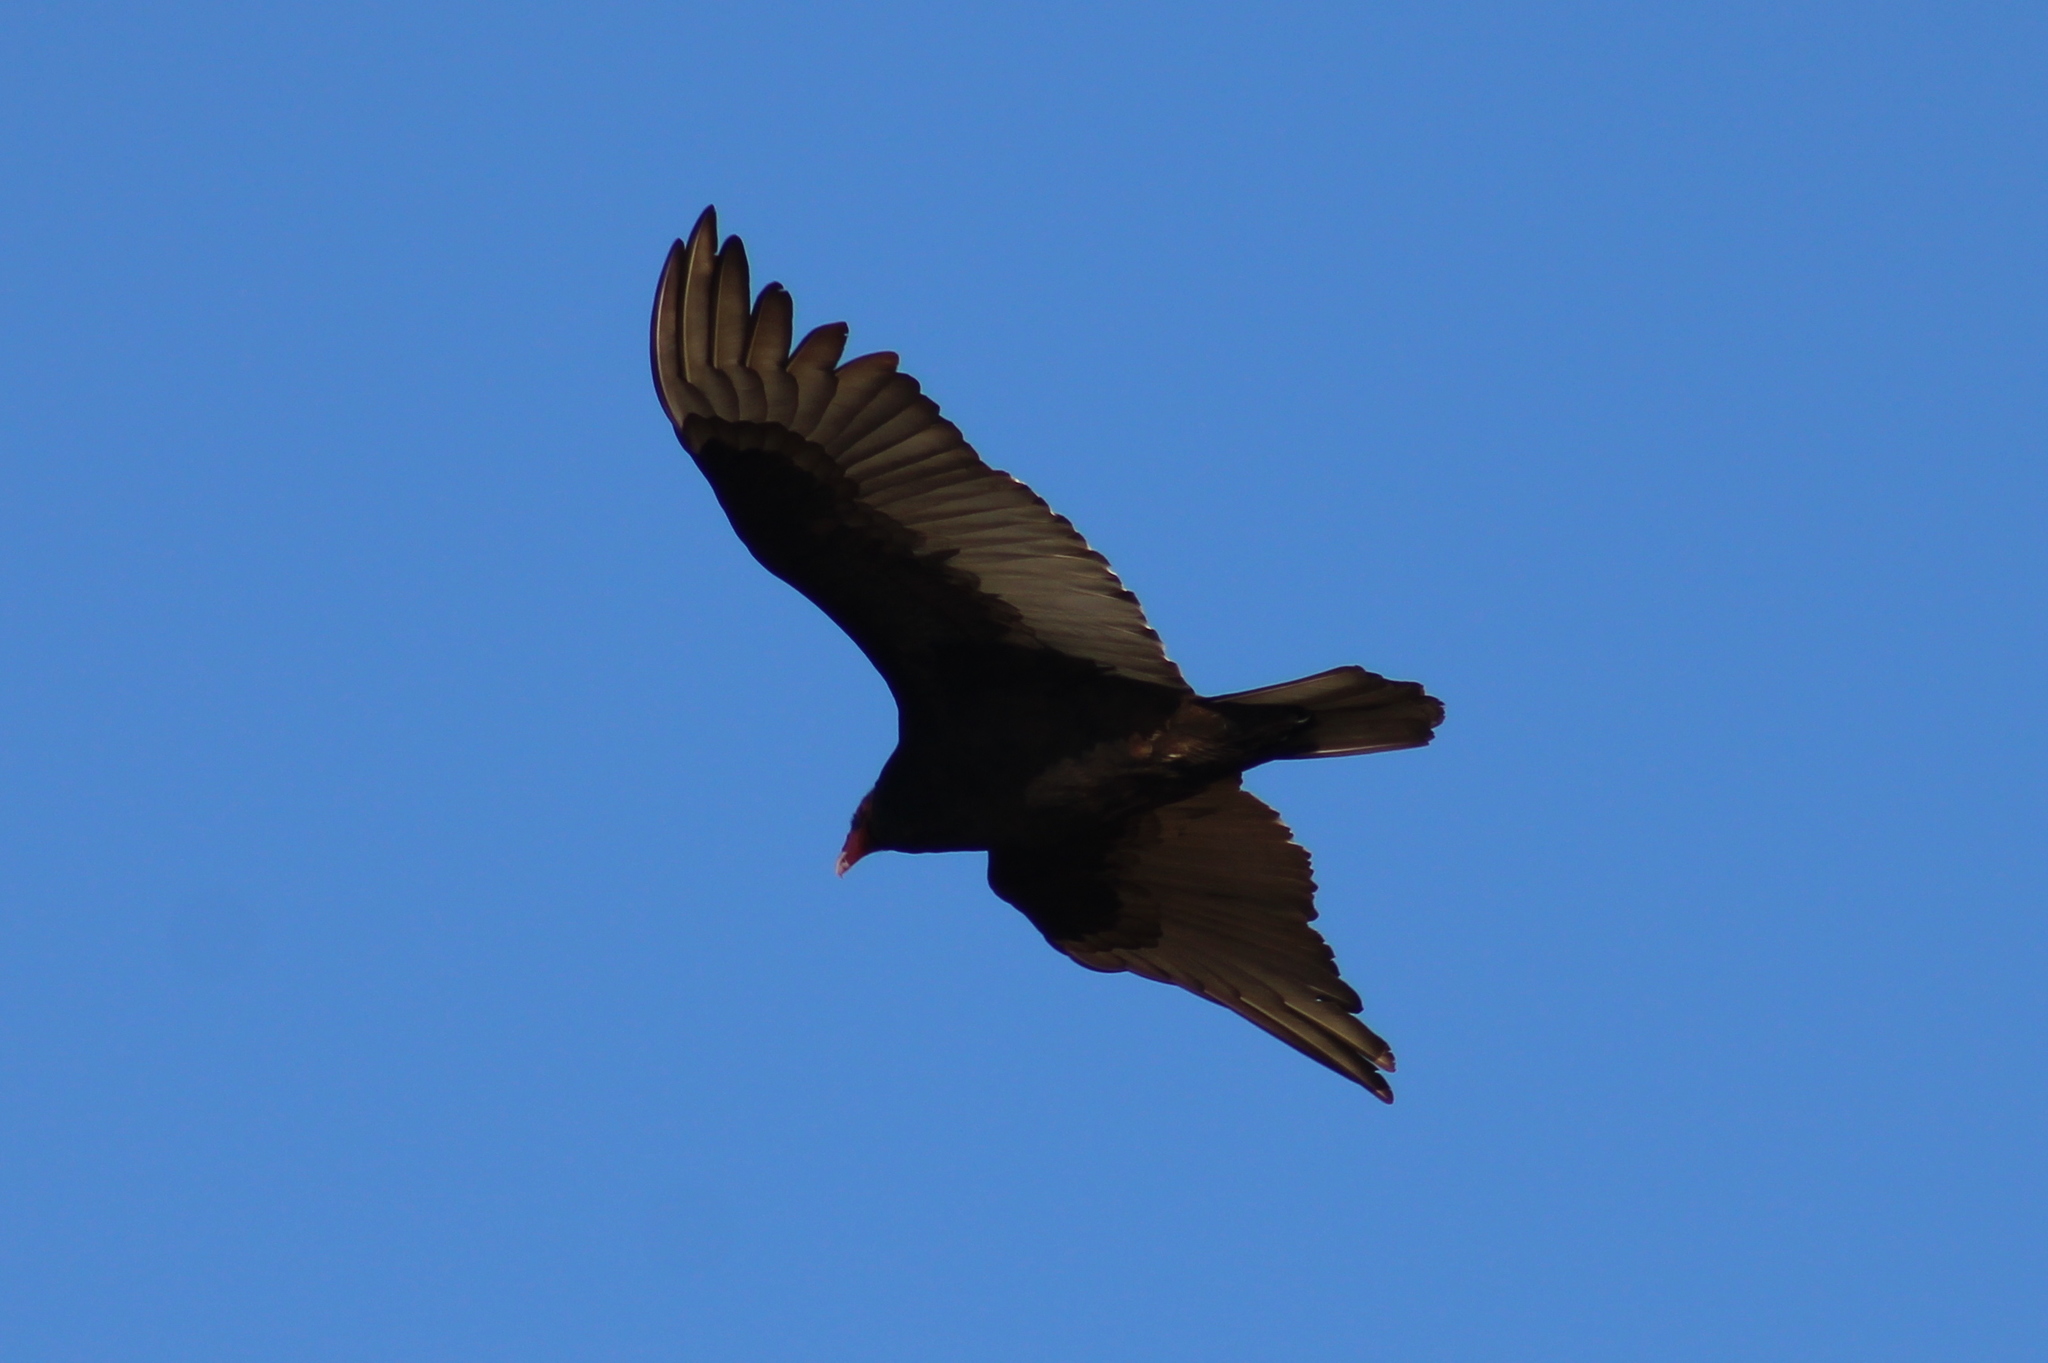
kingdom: Animalia
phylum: Chordata
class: Aves
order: Accipitriformes
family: Cathartidae
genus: Cathartes
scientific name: Cathartes aura
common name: Turkey vulture
